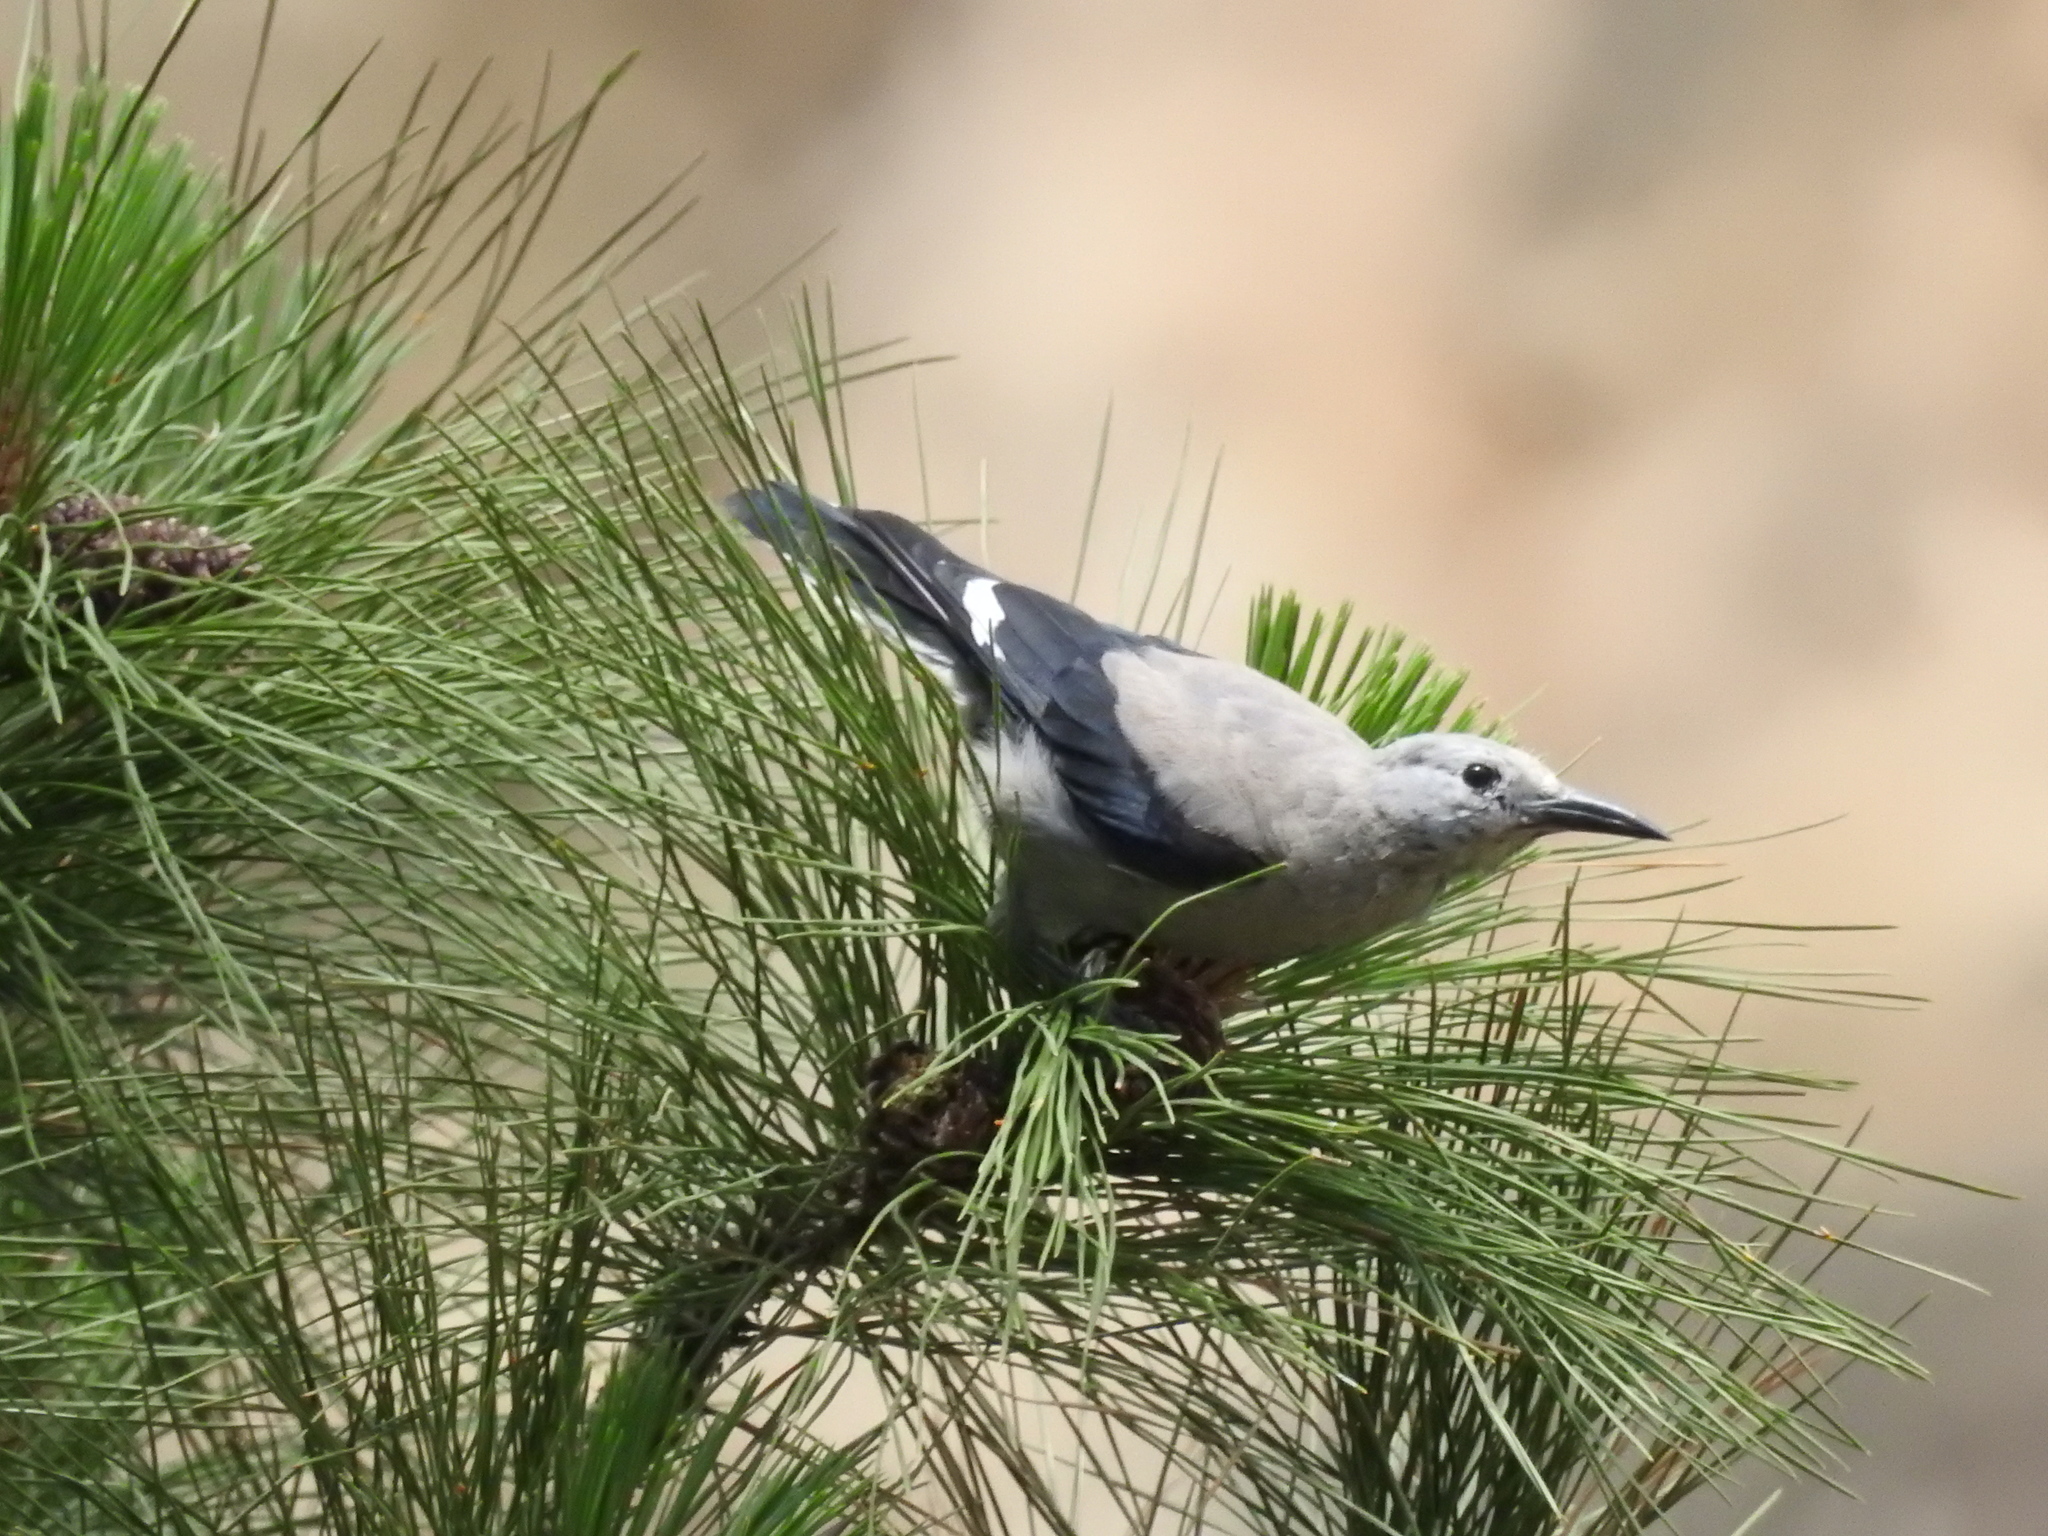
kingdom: Animalia
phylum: Chordata
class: Aves
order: Passeriformes
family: Corvidae
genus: Nucifraga
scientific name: Nucifraga columbiana
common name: Clark's nutcracker
